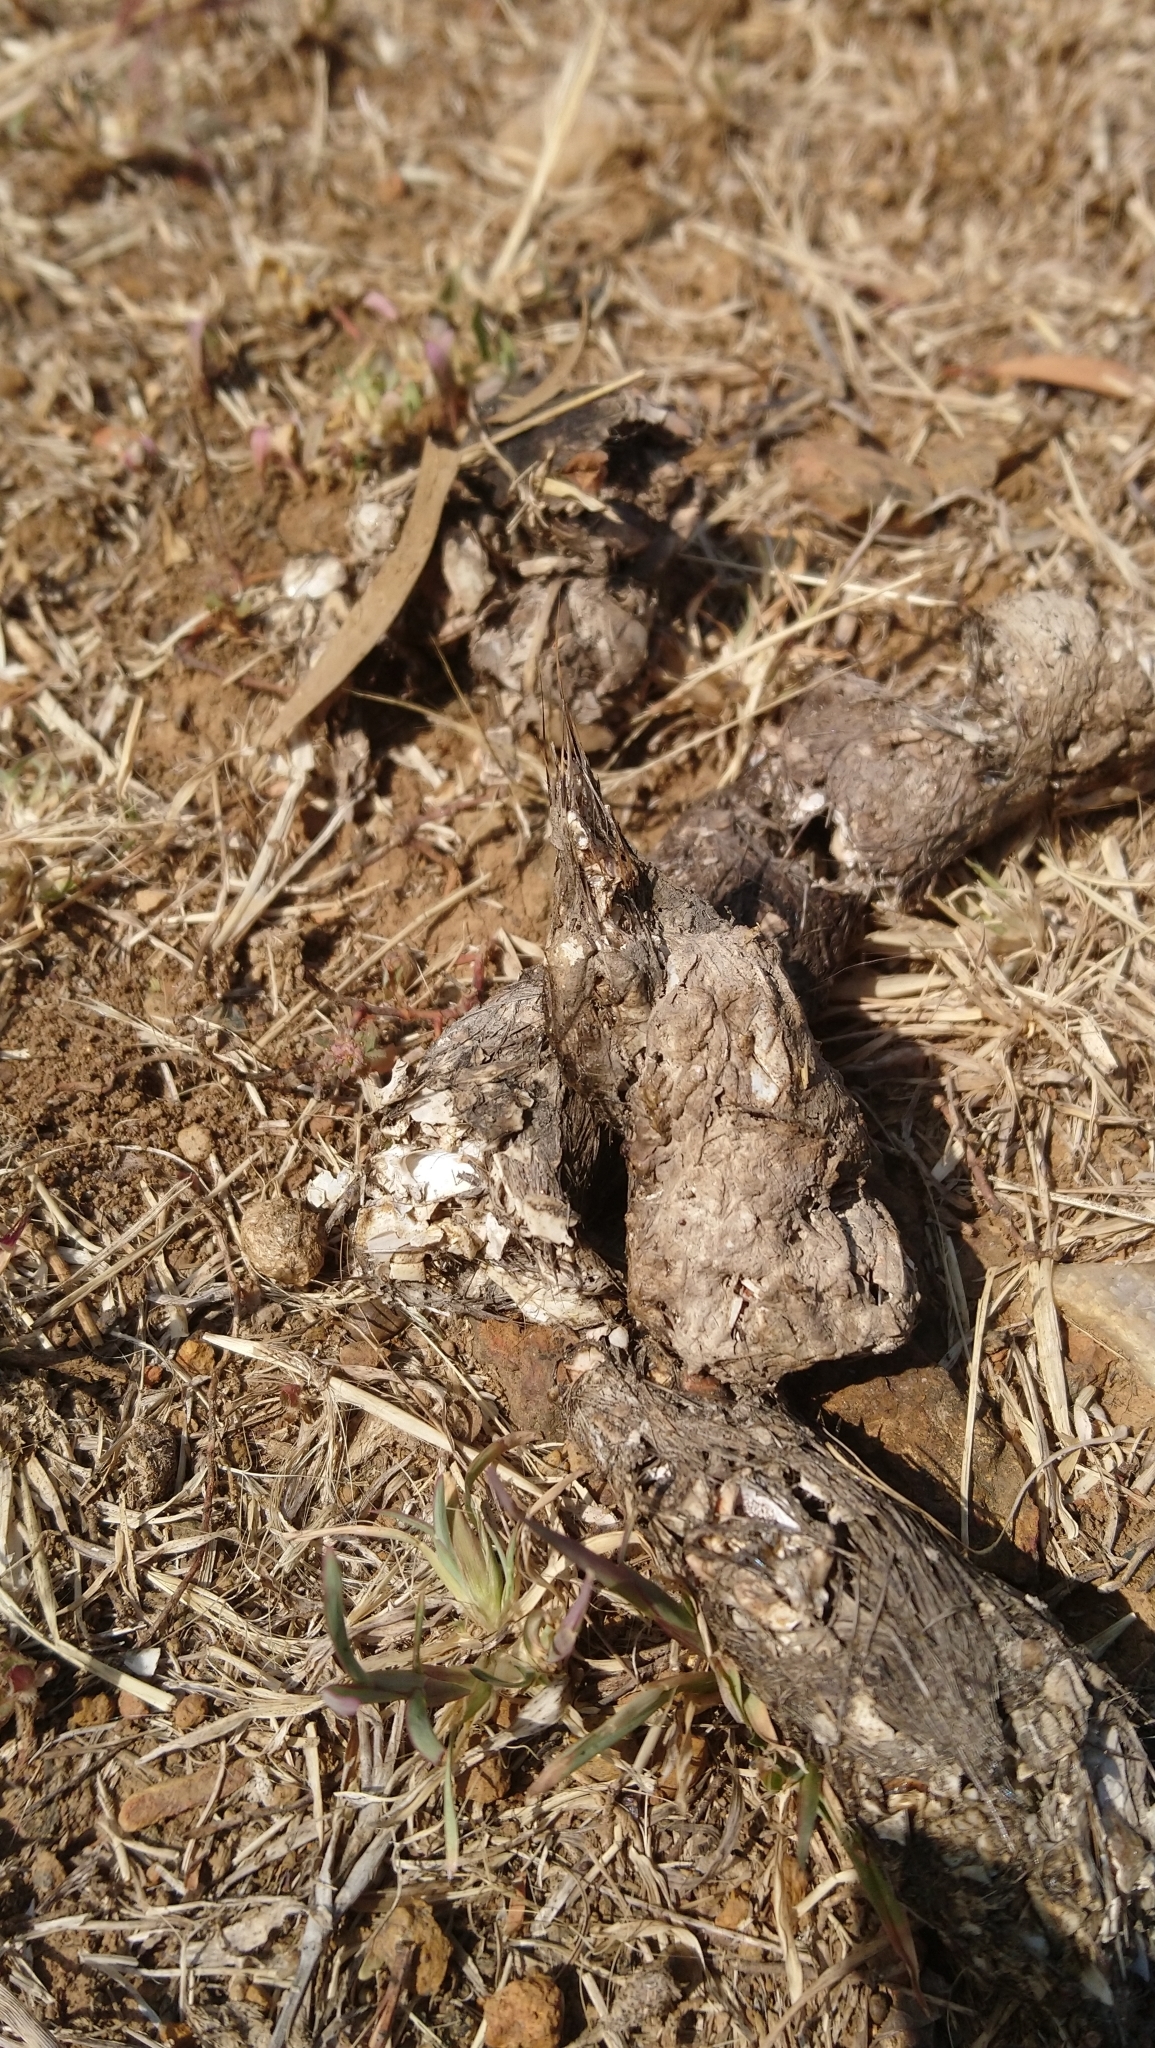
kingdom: Animalia
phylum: Chordata
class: Mammalia
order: Carnivora
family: Mustelidae
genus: Aonyx
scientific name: Aonyx capensis
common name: African clawless otter
